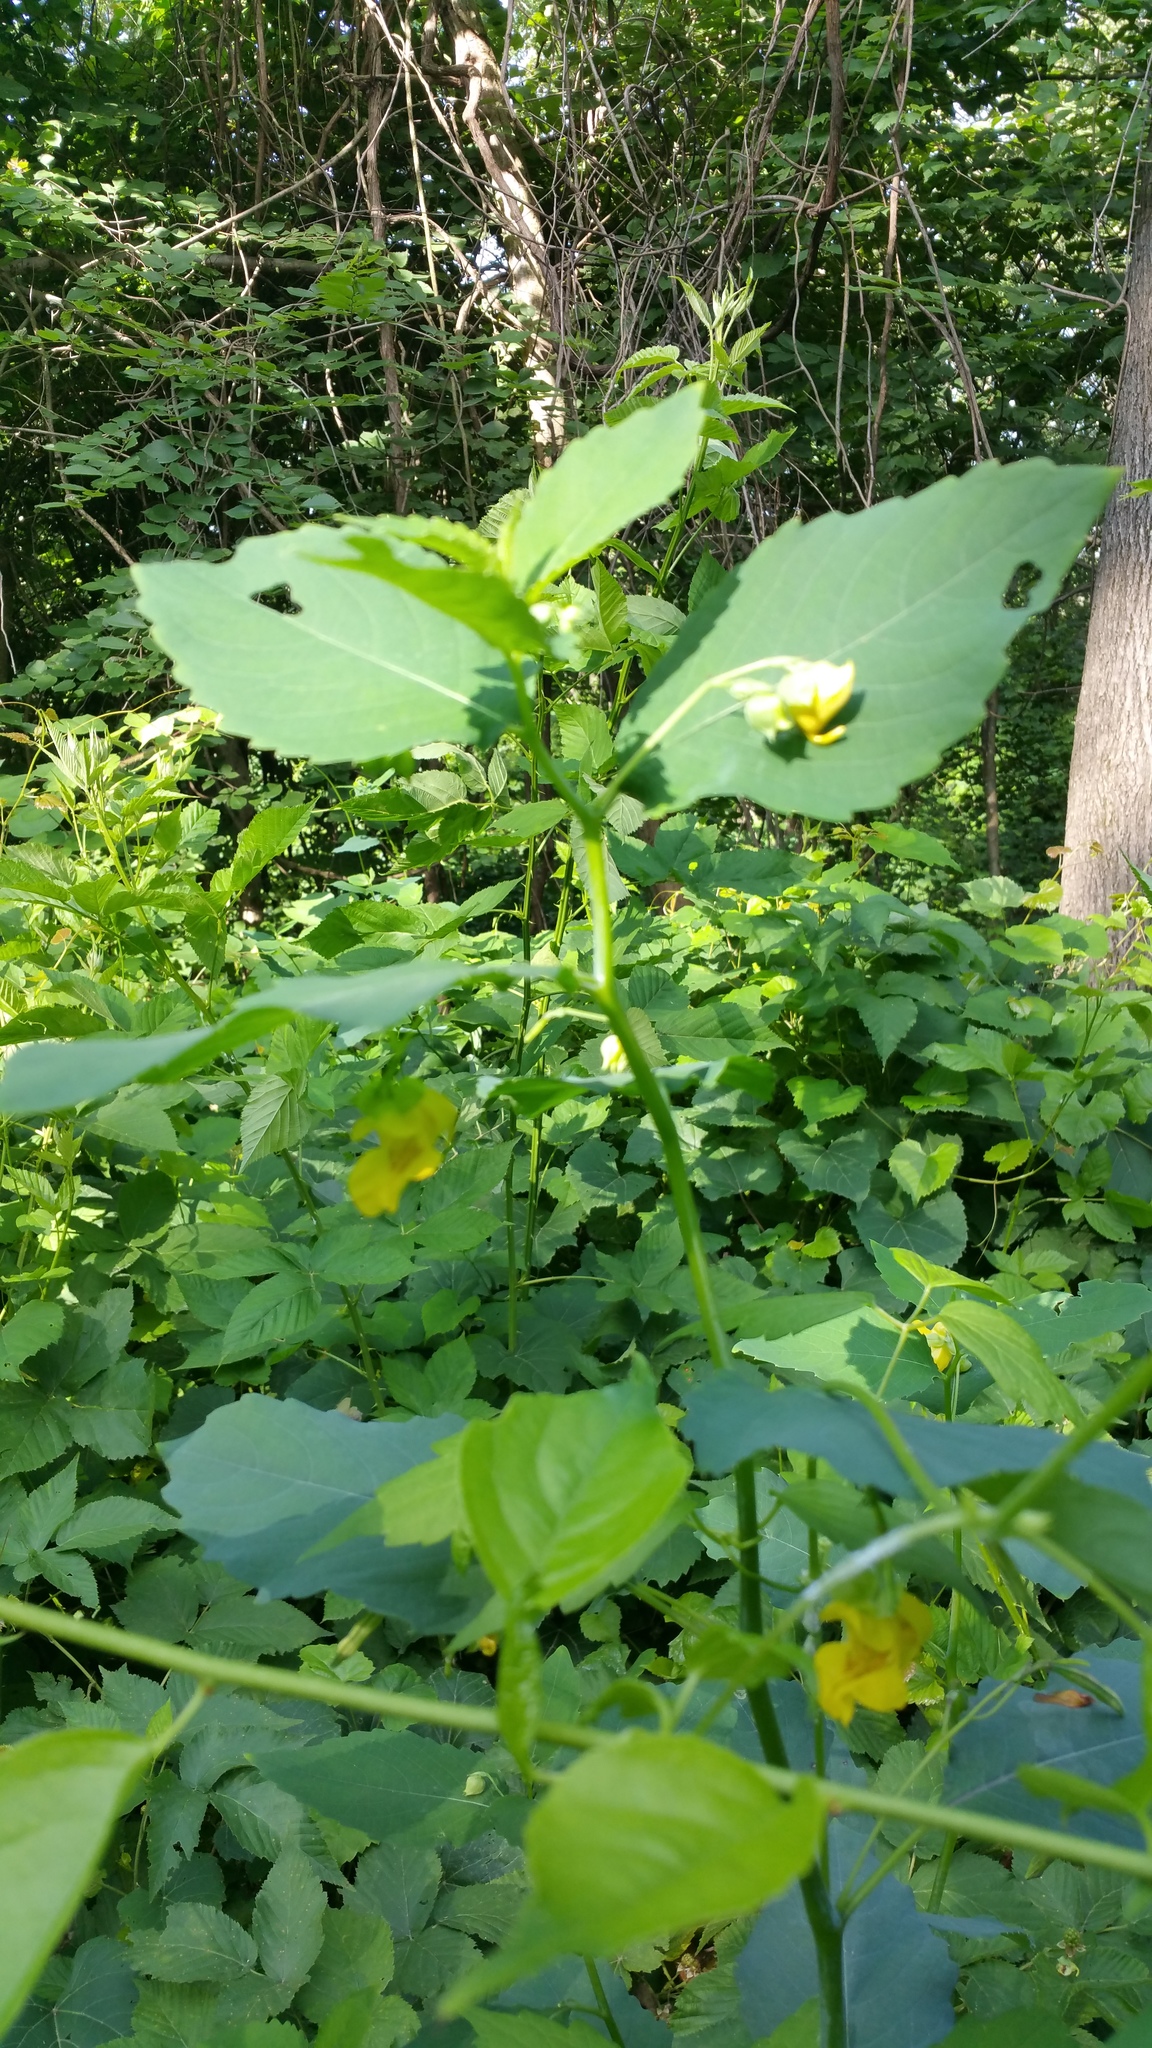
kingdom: Plantae
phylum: Tracheophyta
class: Magnoliopsida
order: Ericales
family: Balsaminaceae
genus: Impatiens
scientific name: Impatiens pallida
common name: Pale snapweed
